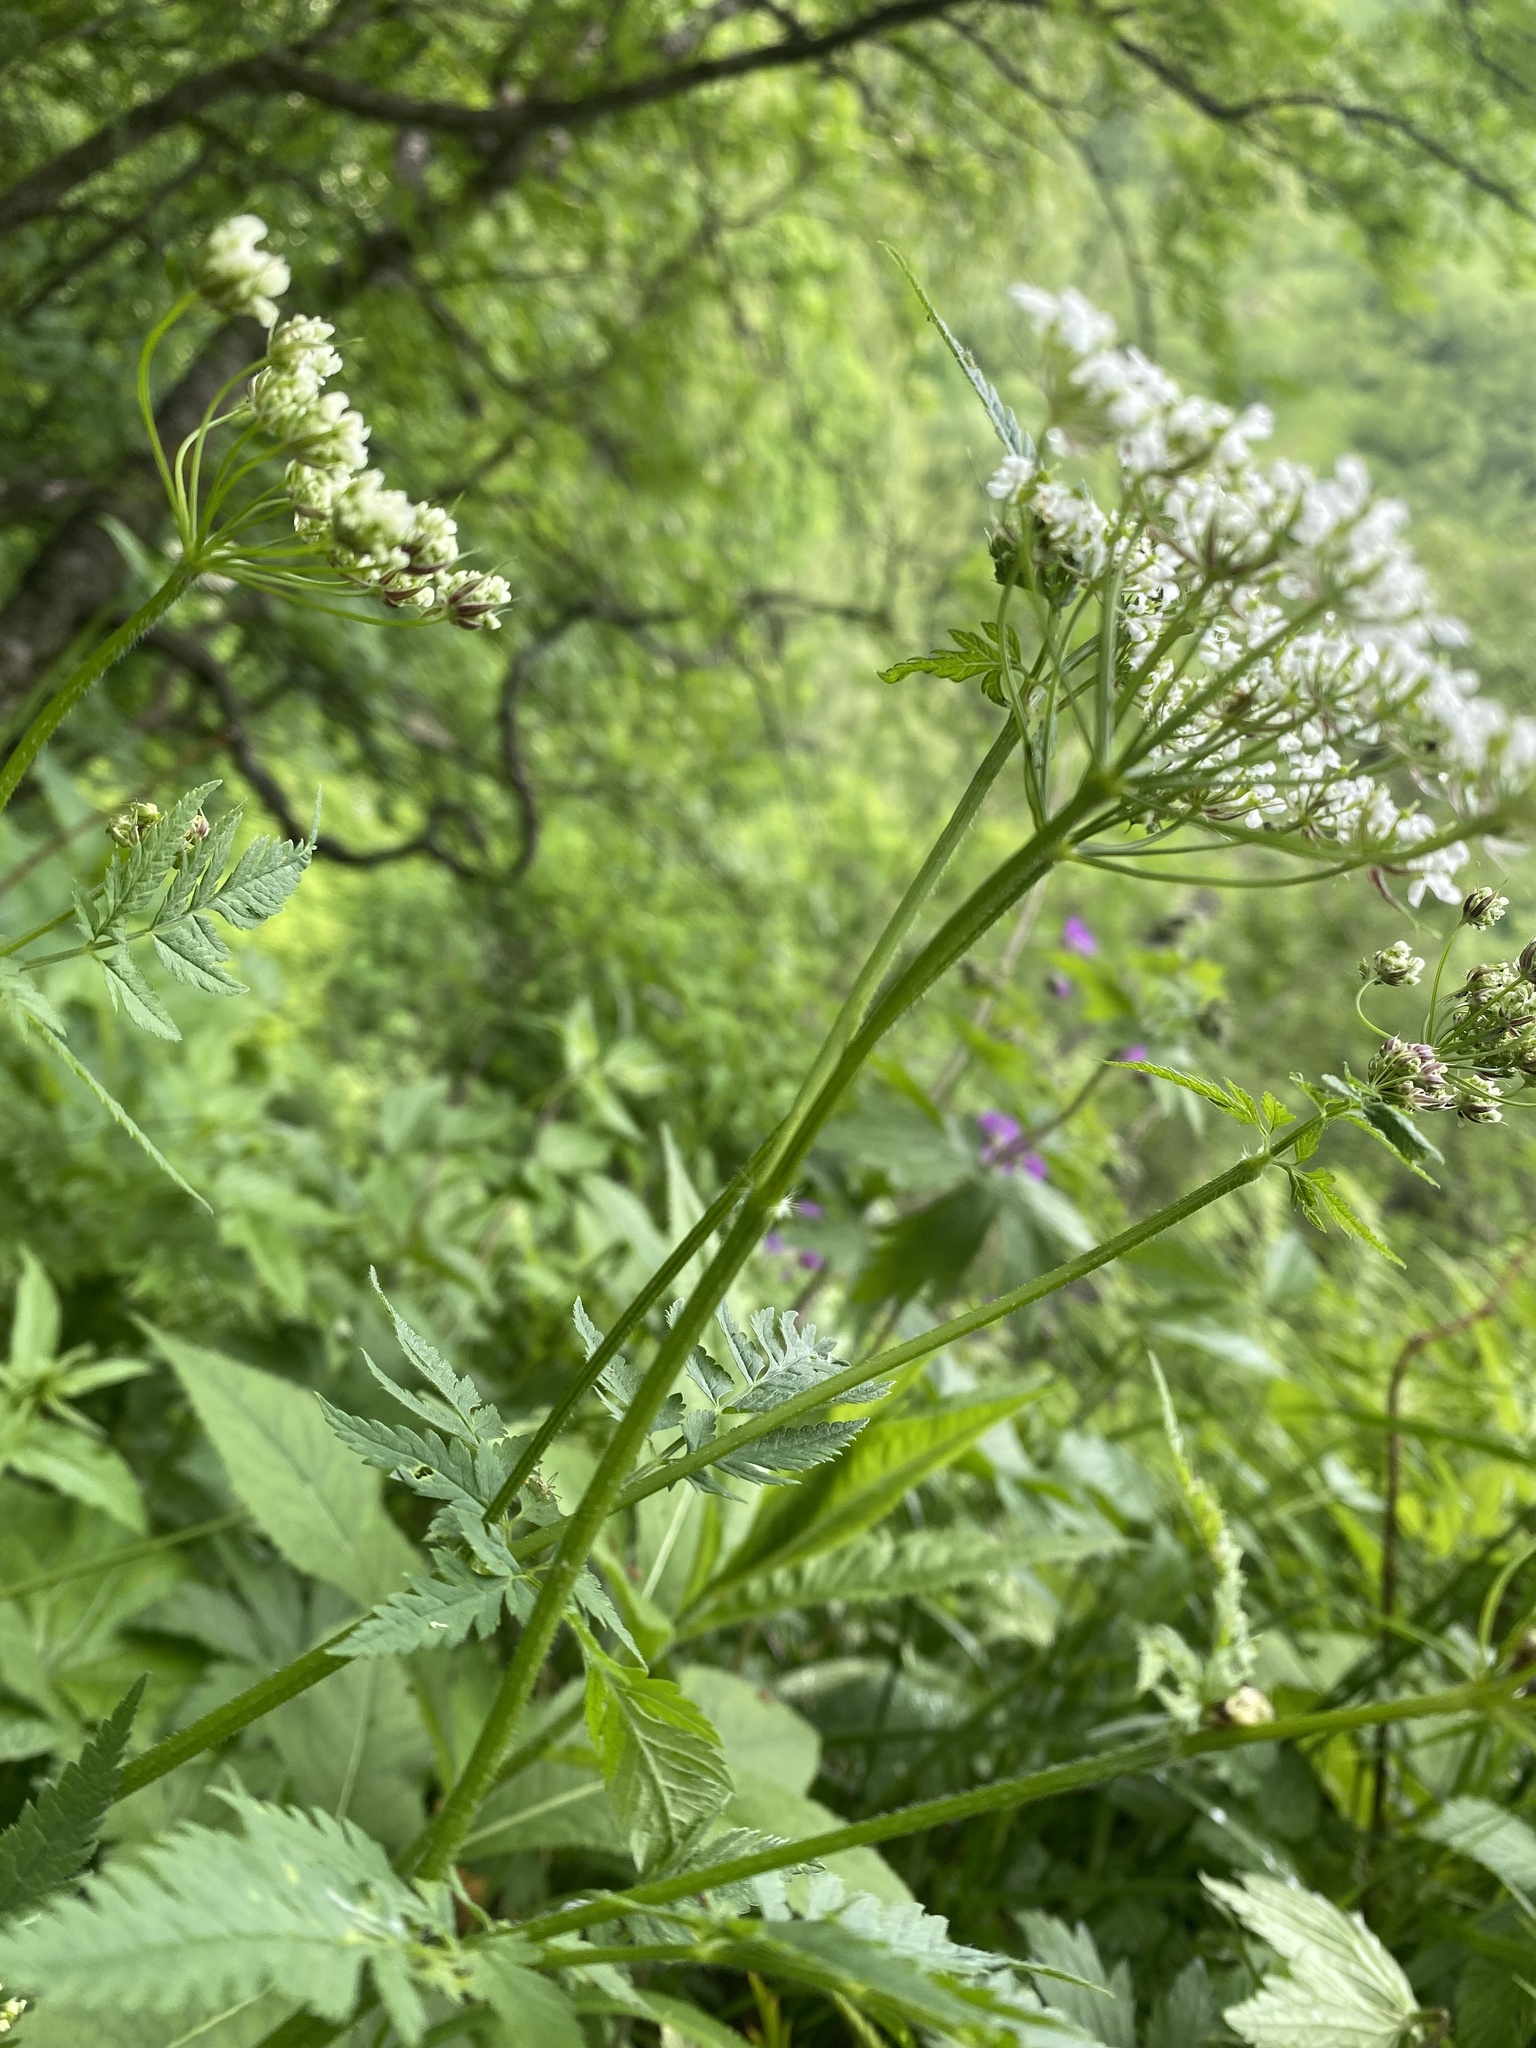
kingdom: Plantae
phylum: Tracheophyta
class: Magnoliopsida
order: Apiales
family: Apiaceae
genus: Chaerophyllum
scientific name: Chaerophyllum aureum
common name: Golden chervil
